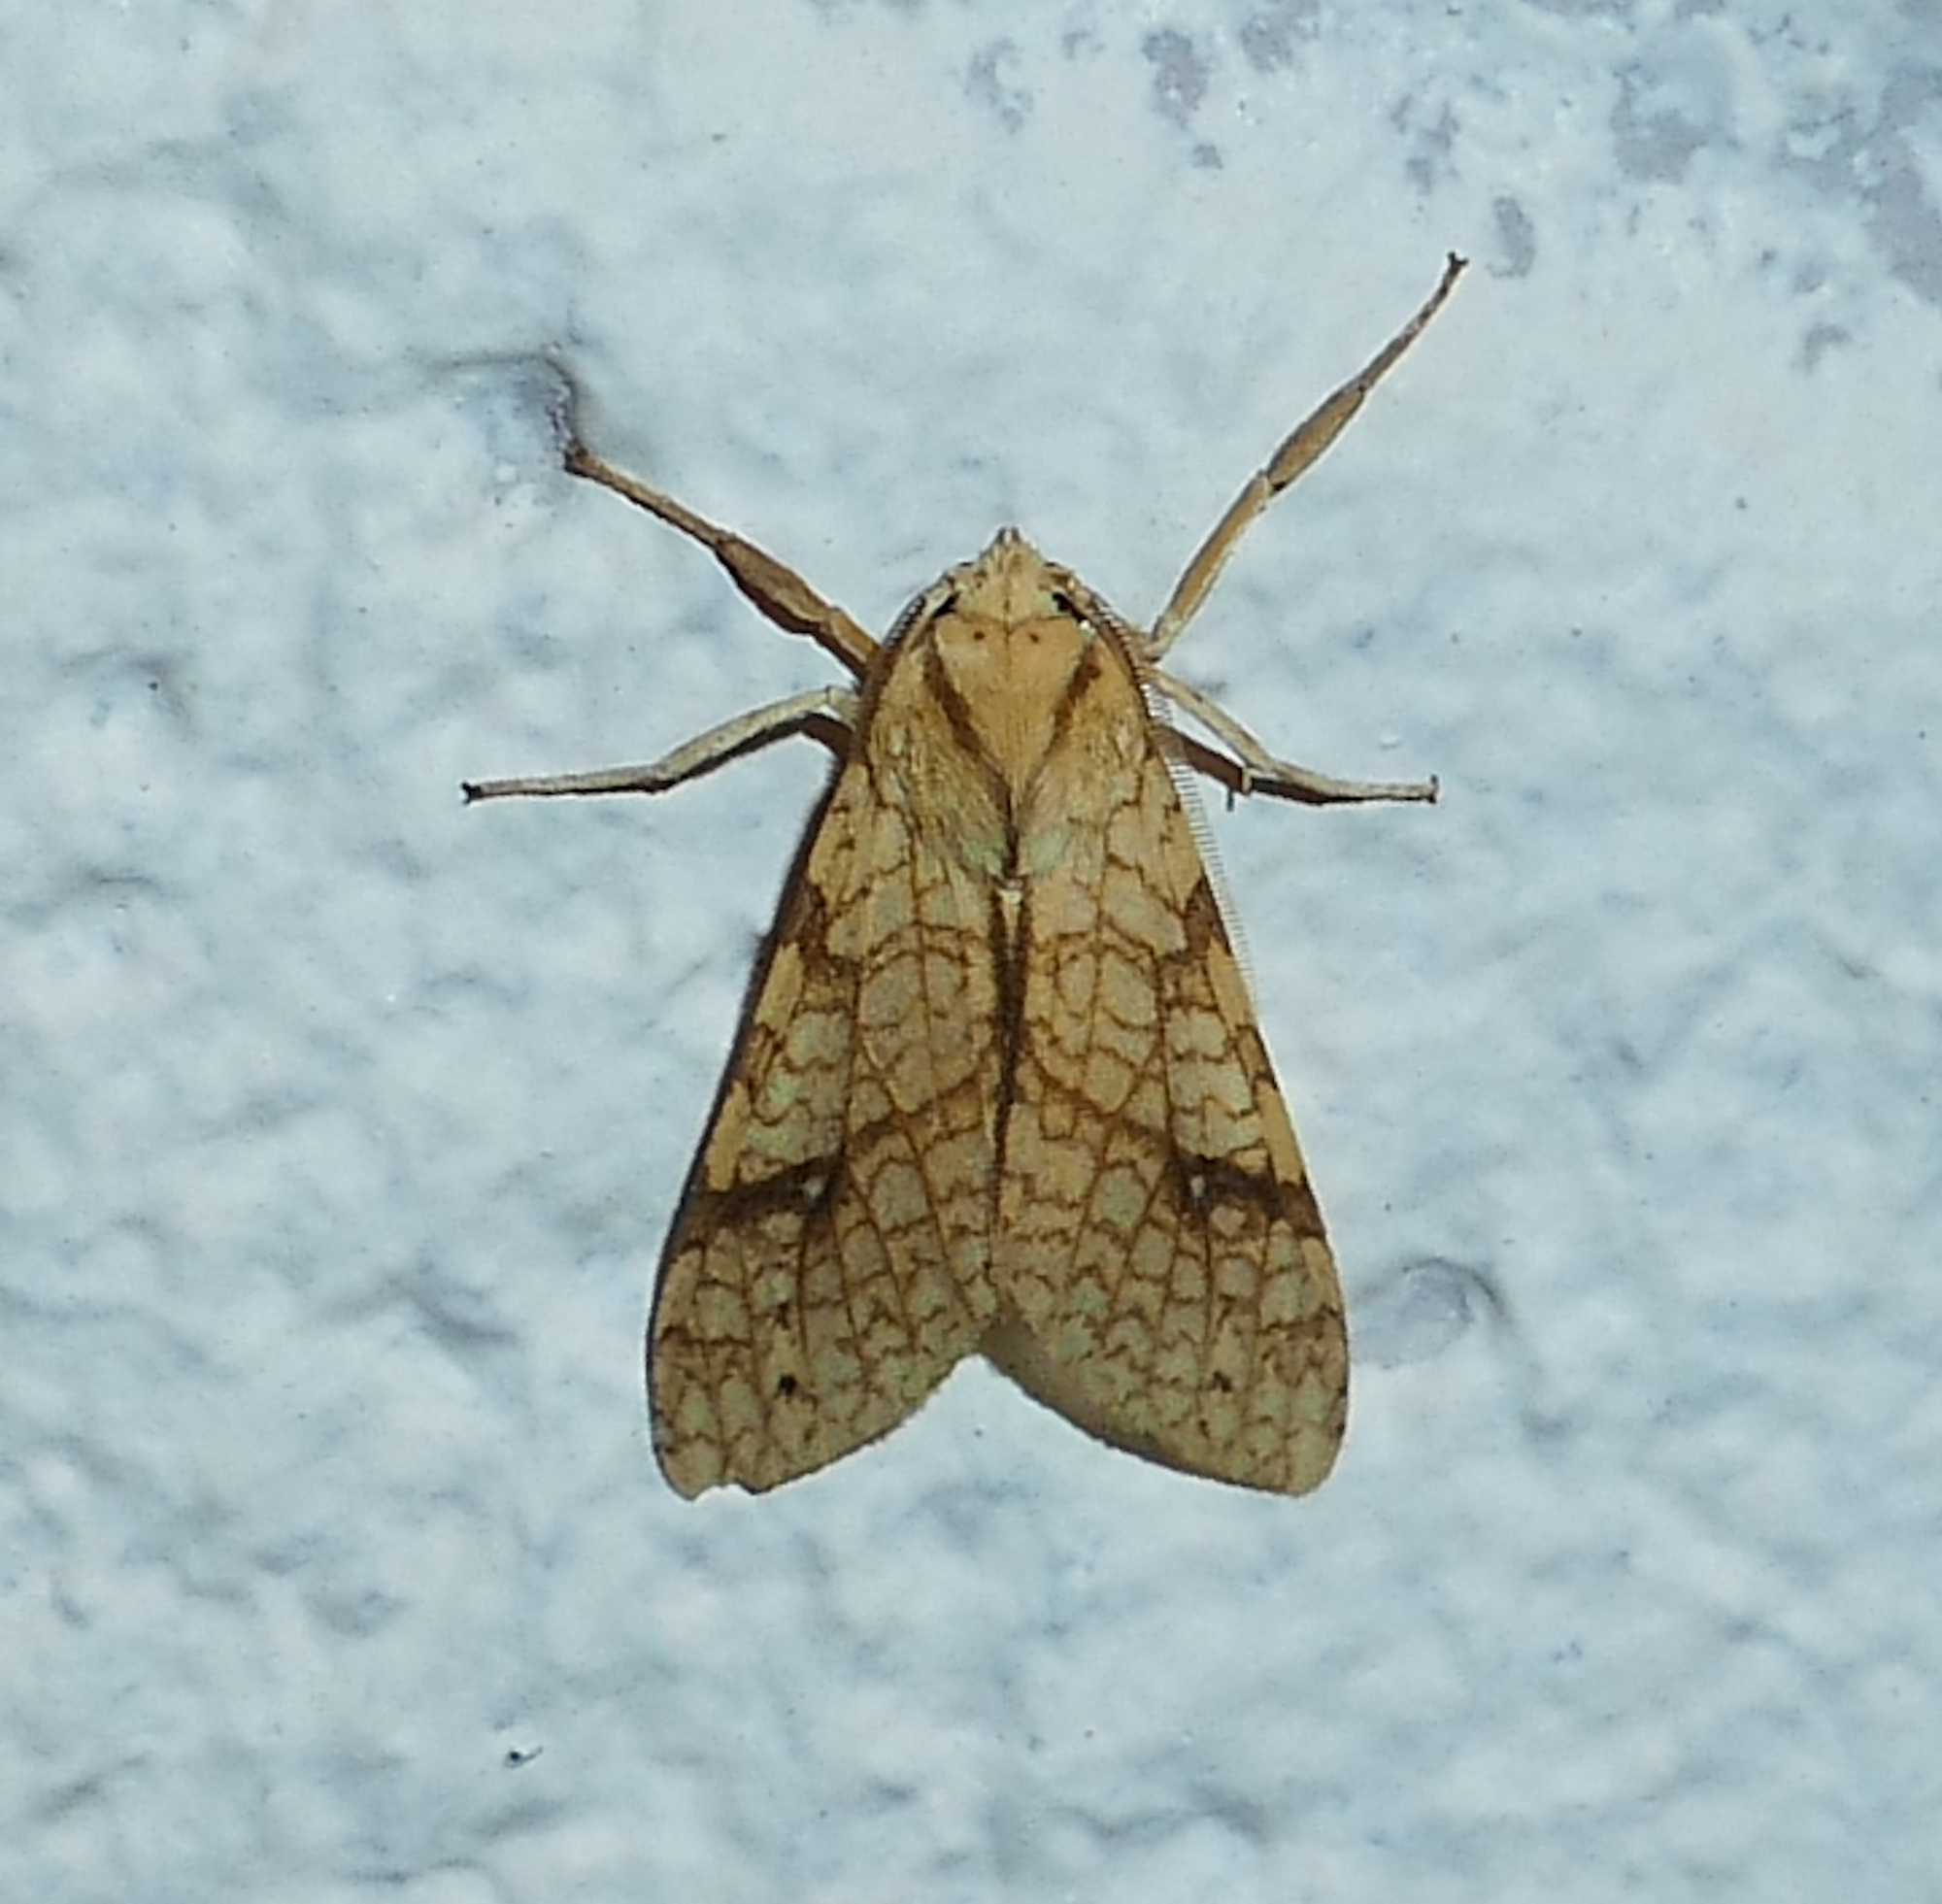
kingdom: Animalia
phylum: Arthropoda
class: Insecta
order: Lepidoptera
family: Erebidae
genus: Lophocampa
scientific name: Lophocampa annulosa
